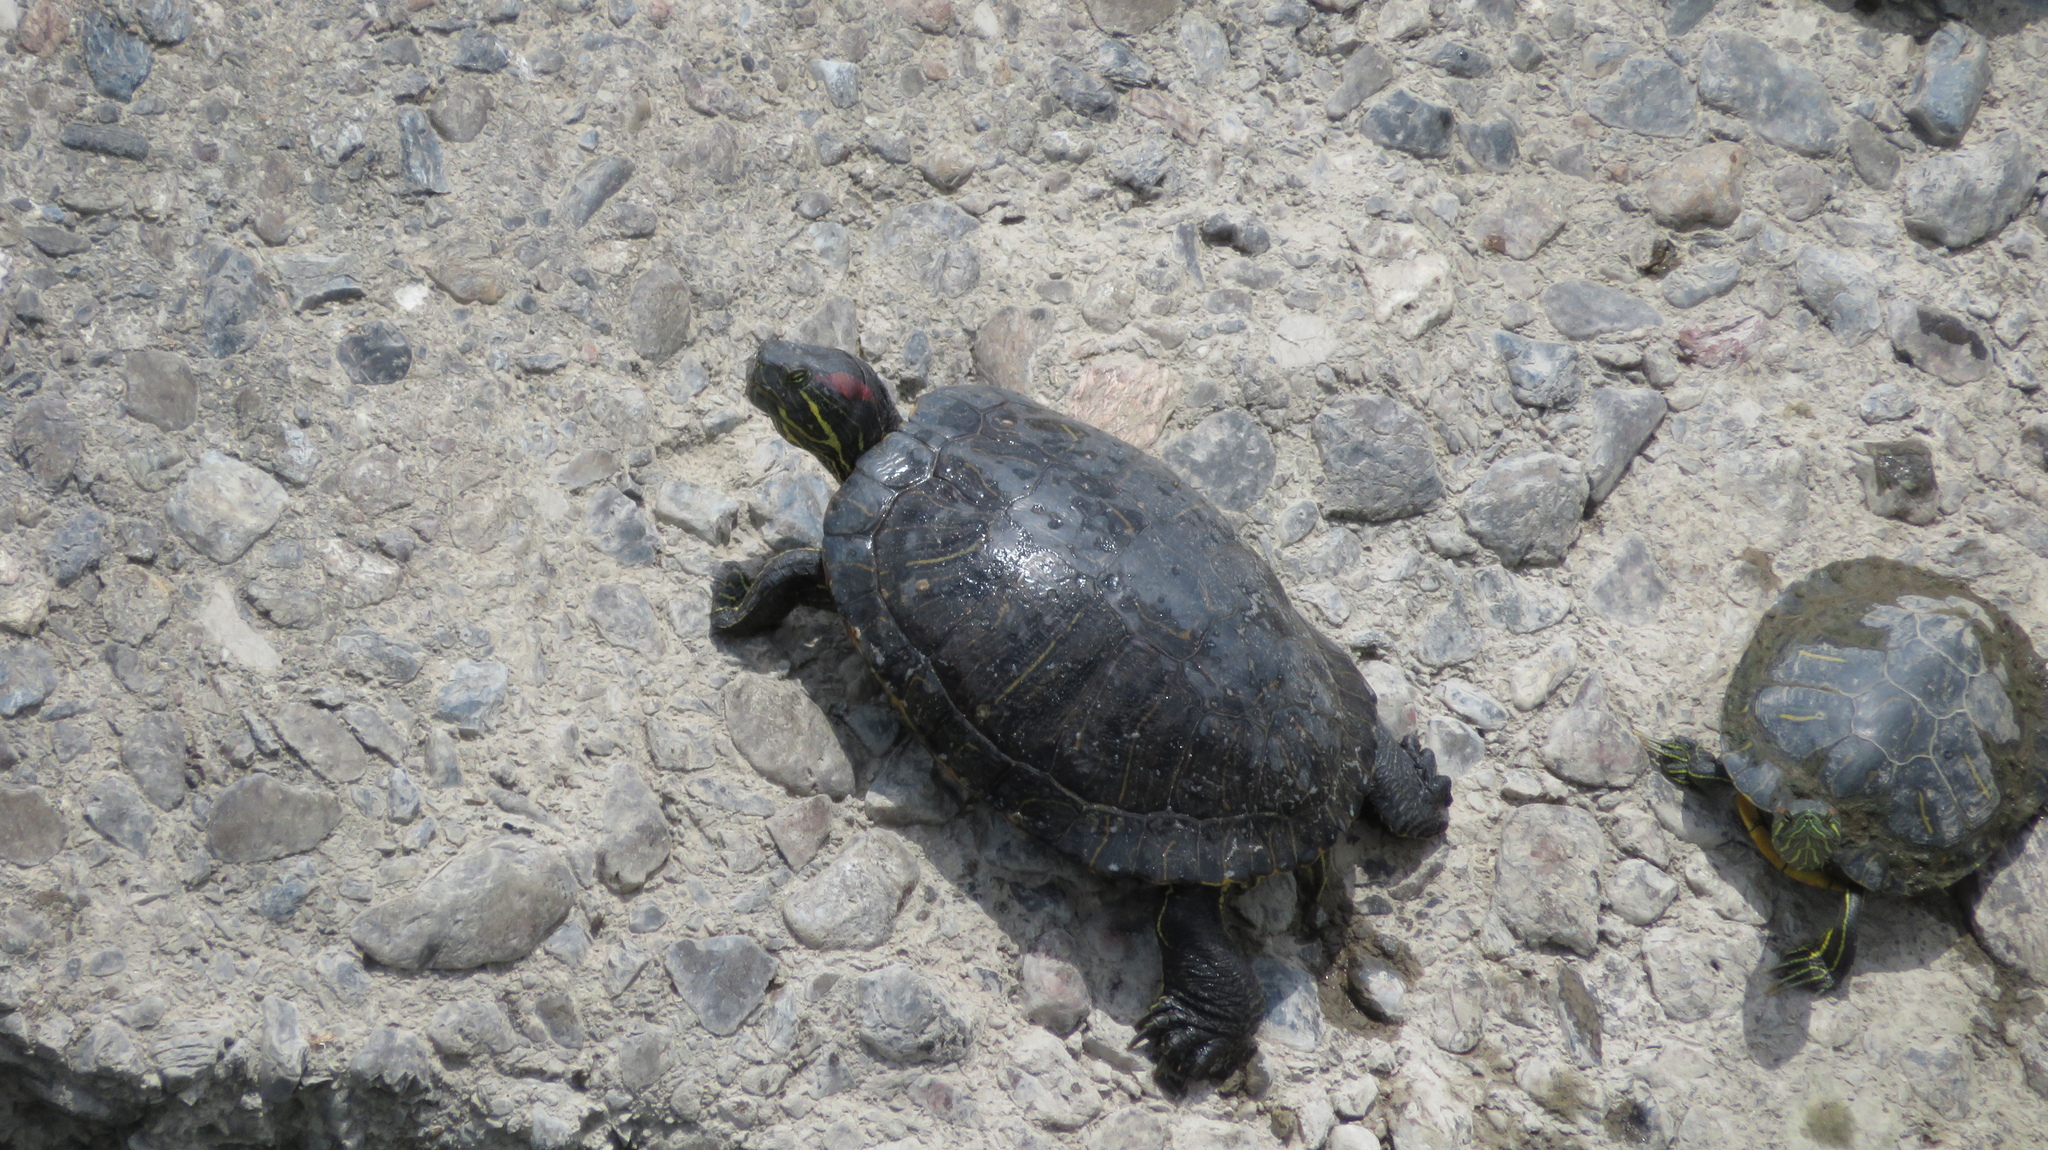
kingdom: Animalia
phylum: Chordata
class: Testudines
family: Emydidae
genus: Trachemys
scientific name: Trachemys scripta
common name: Slider
